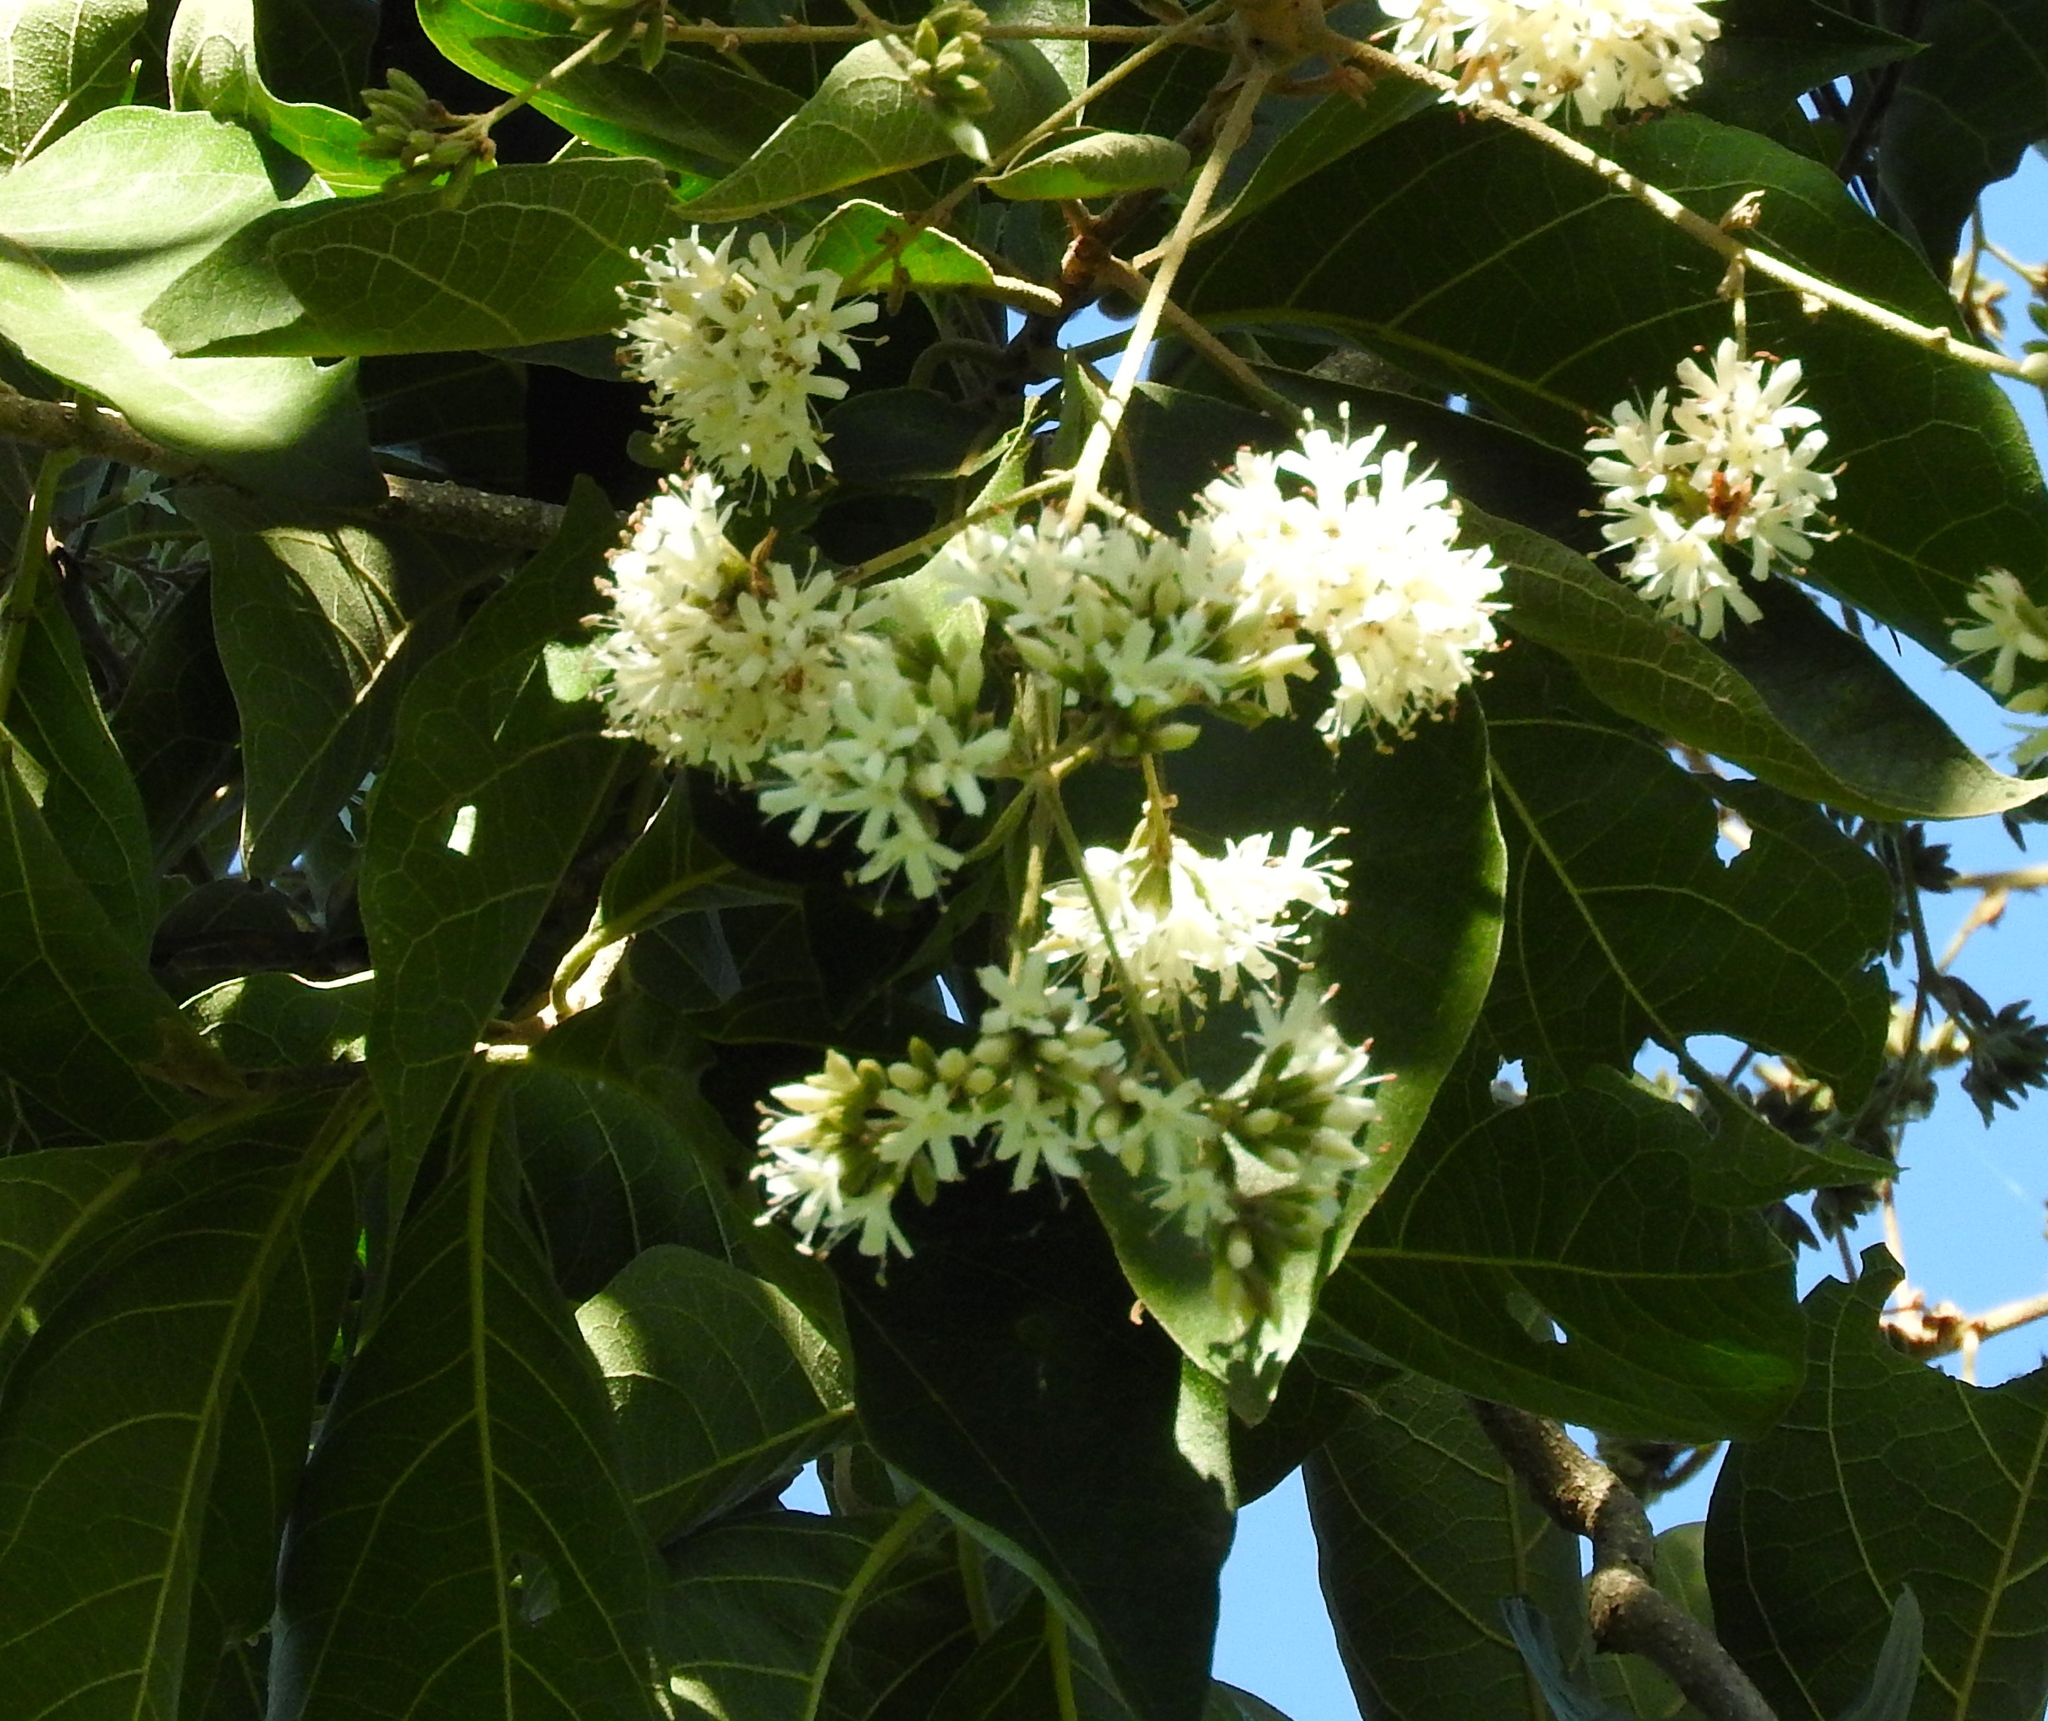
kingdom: Plantae
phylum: Tracheophyta
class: Magnoliopsida
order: Boraginales
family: Cordiaceae
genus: Cordia
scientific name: Cordia alliodora
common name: Spanish elm
